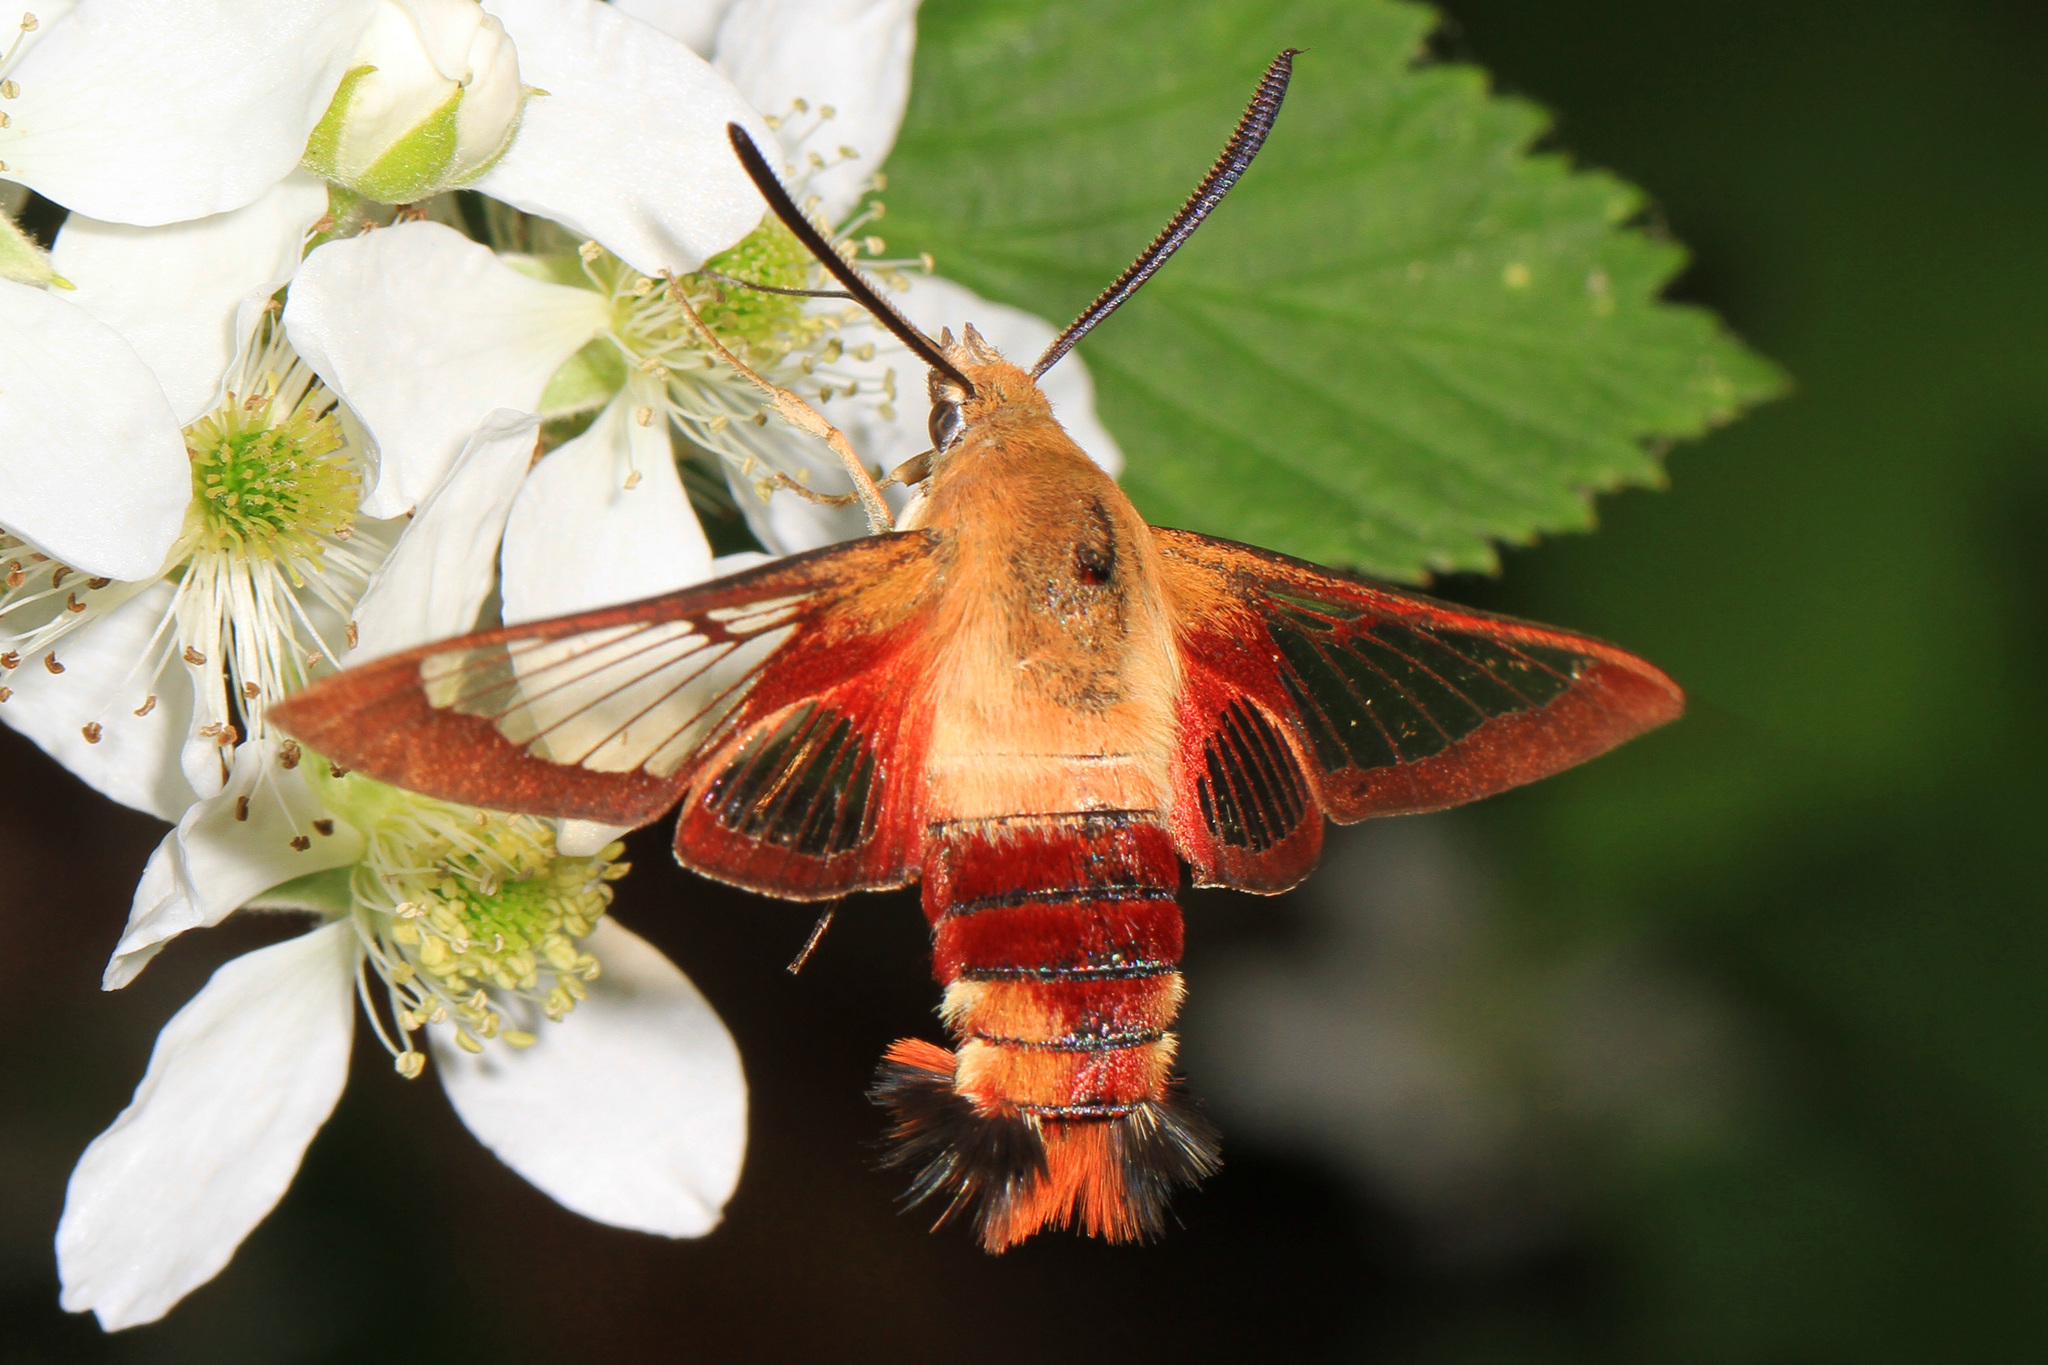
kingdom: Animalia
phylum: Arthropoda
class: Insecta
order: Lepidoptera
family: Sphingidae
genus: Hemaris
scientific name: Hemaris thysbe
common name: Common clear-wing
